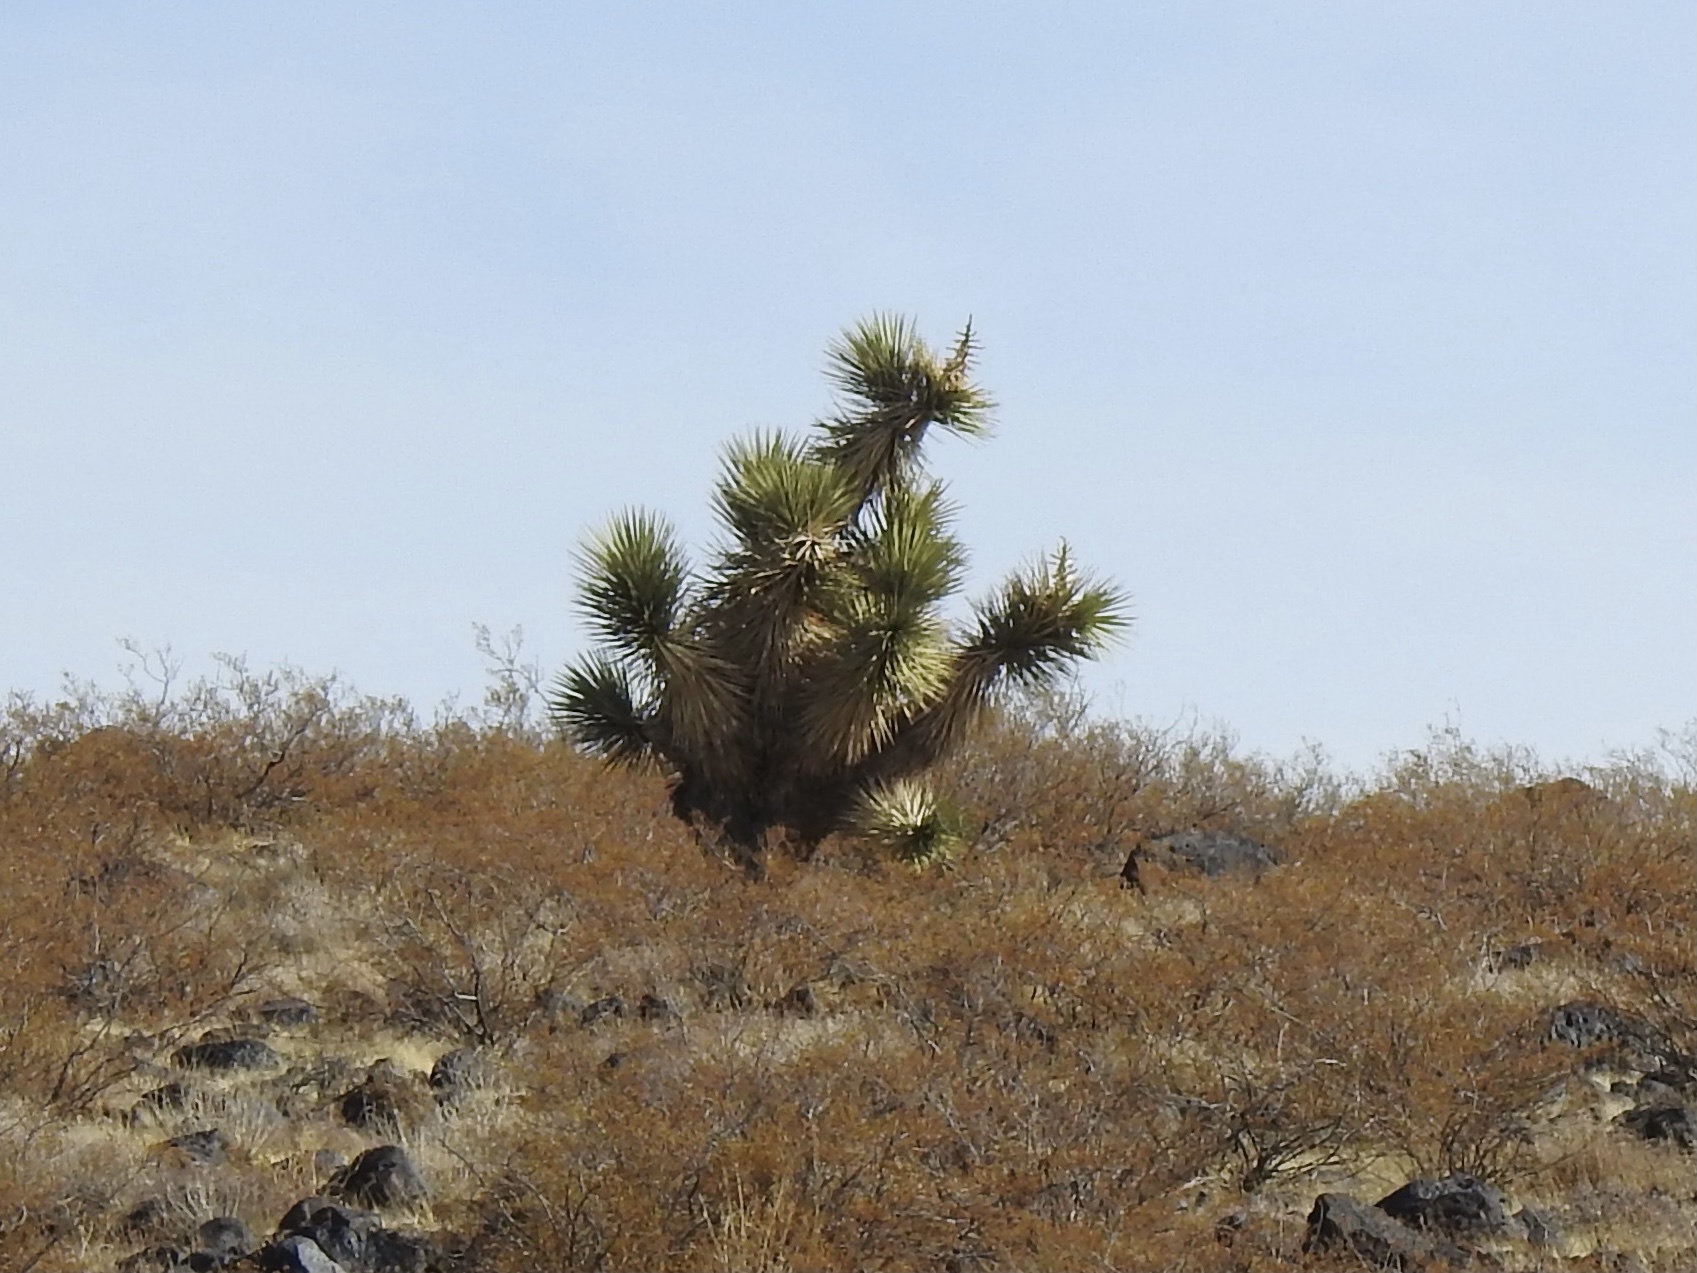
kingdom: Plantae
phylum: Tracheophyta
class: Liliopsida
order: Asparagales
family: Asparagaceae
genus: Yucca
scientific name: Yucca brevifolia
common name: Joshua tree
